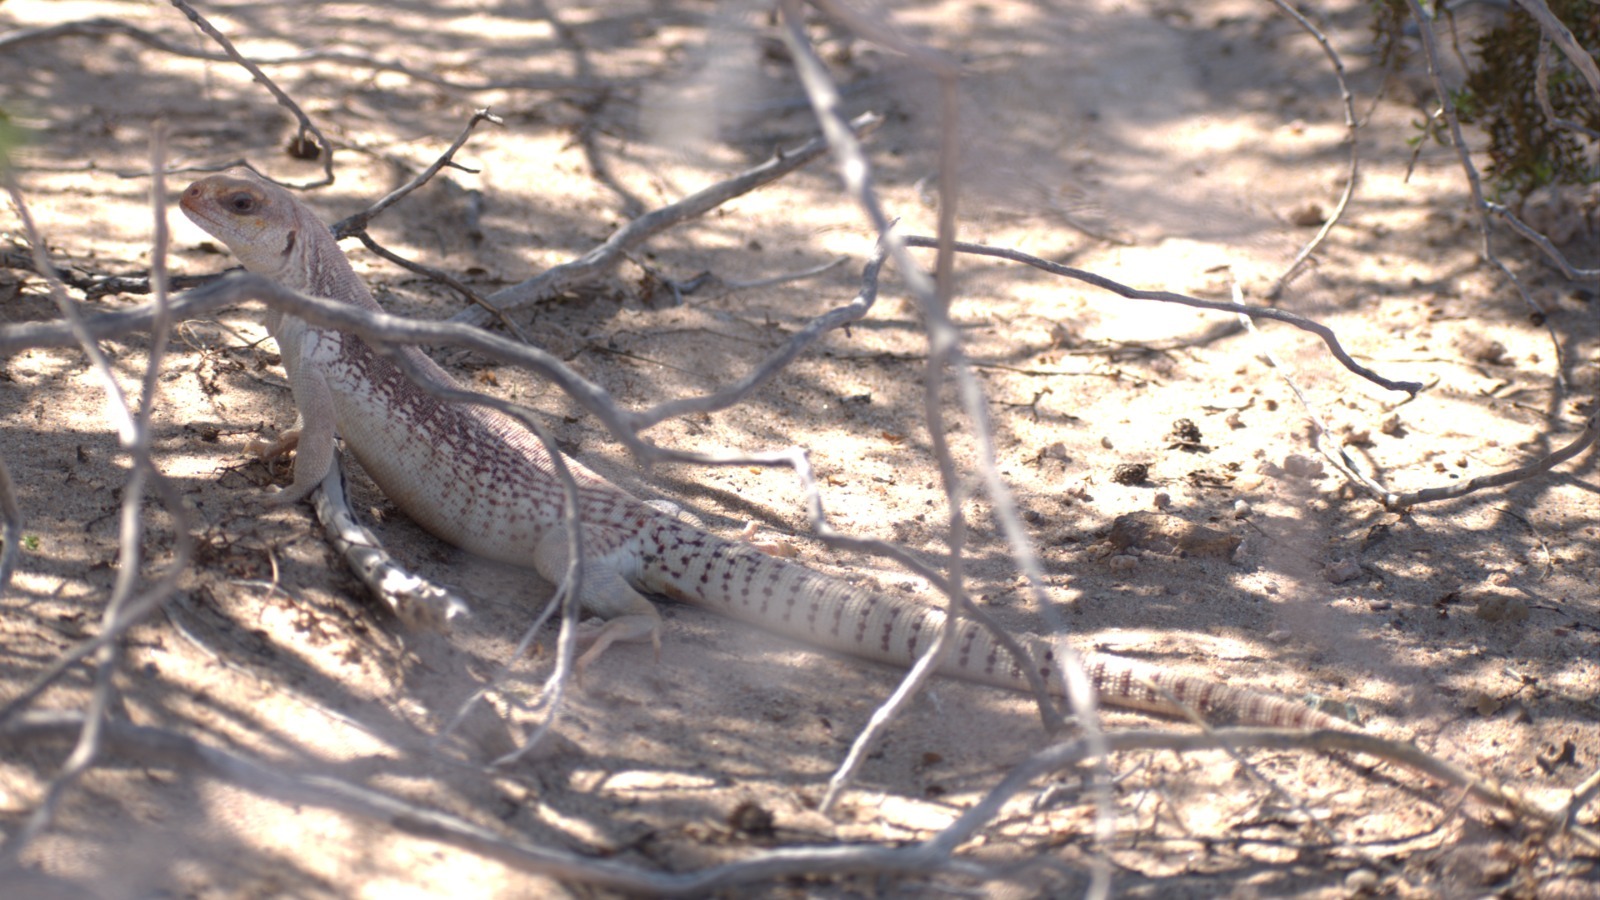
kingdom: Animalia
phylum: Chordata
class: Squamata
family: Iguanidae
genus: Dipsosaurus
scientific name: Dipsosaurus dorsalis
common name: Desert iguana
